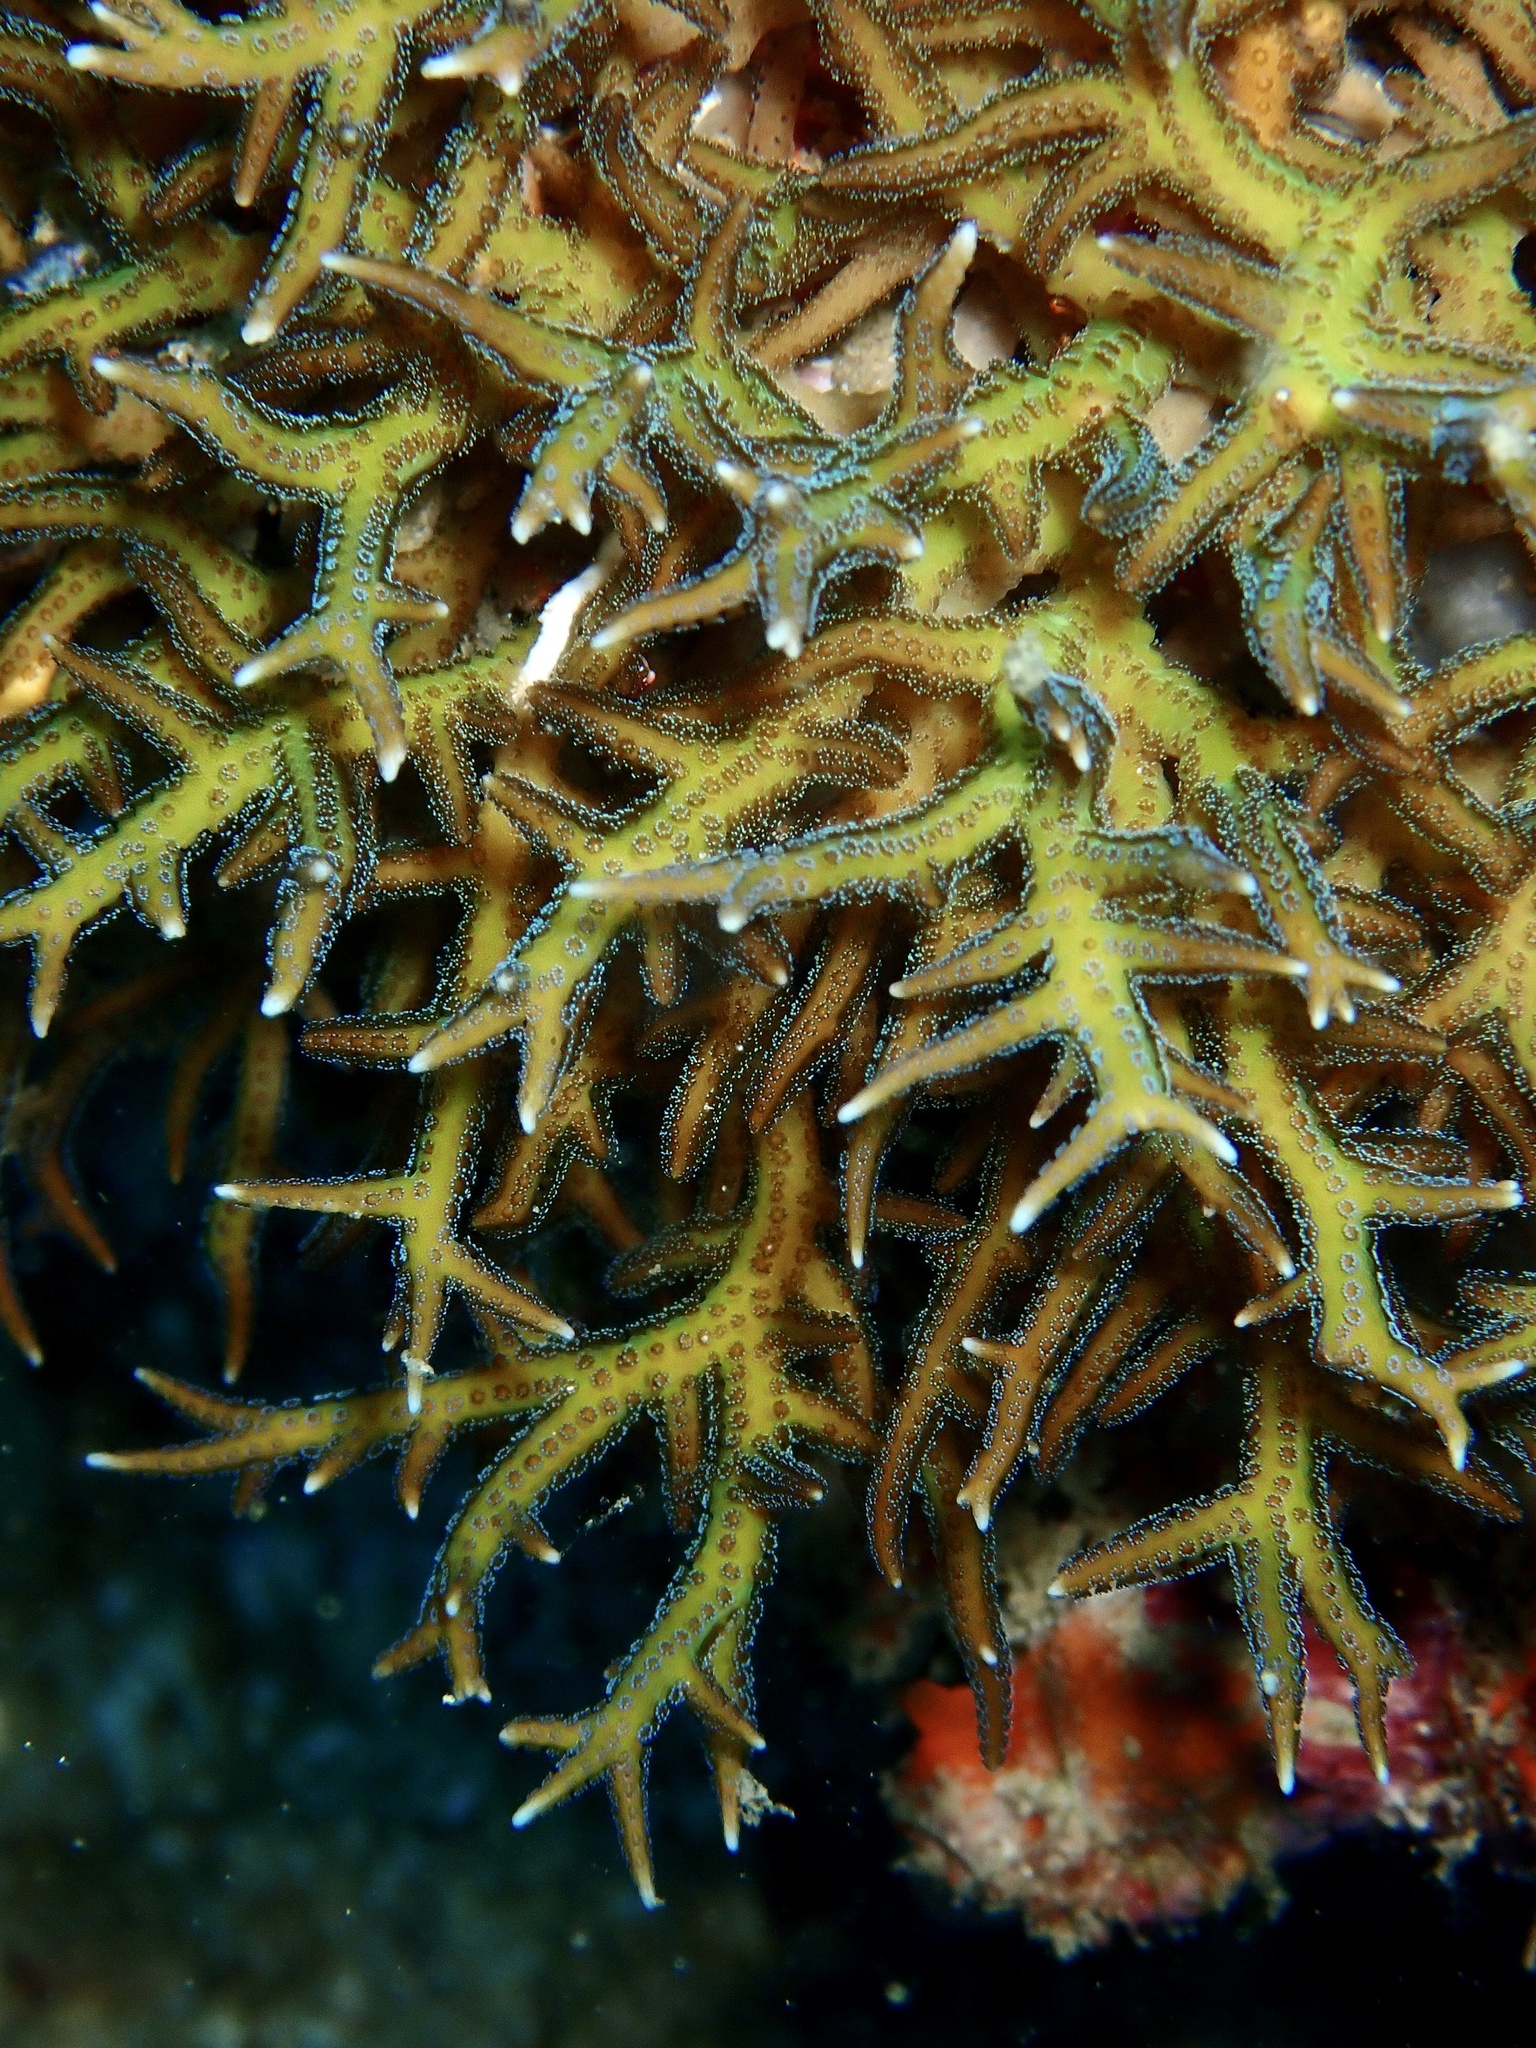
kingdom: Animalia
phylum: Cnidaria
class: Anthozoa
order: Scleractinia
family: Pocilloporidae
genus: Seriatopora
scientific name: Seriatopora hystrix
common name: Bush coral
